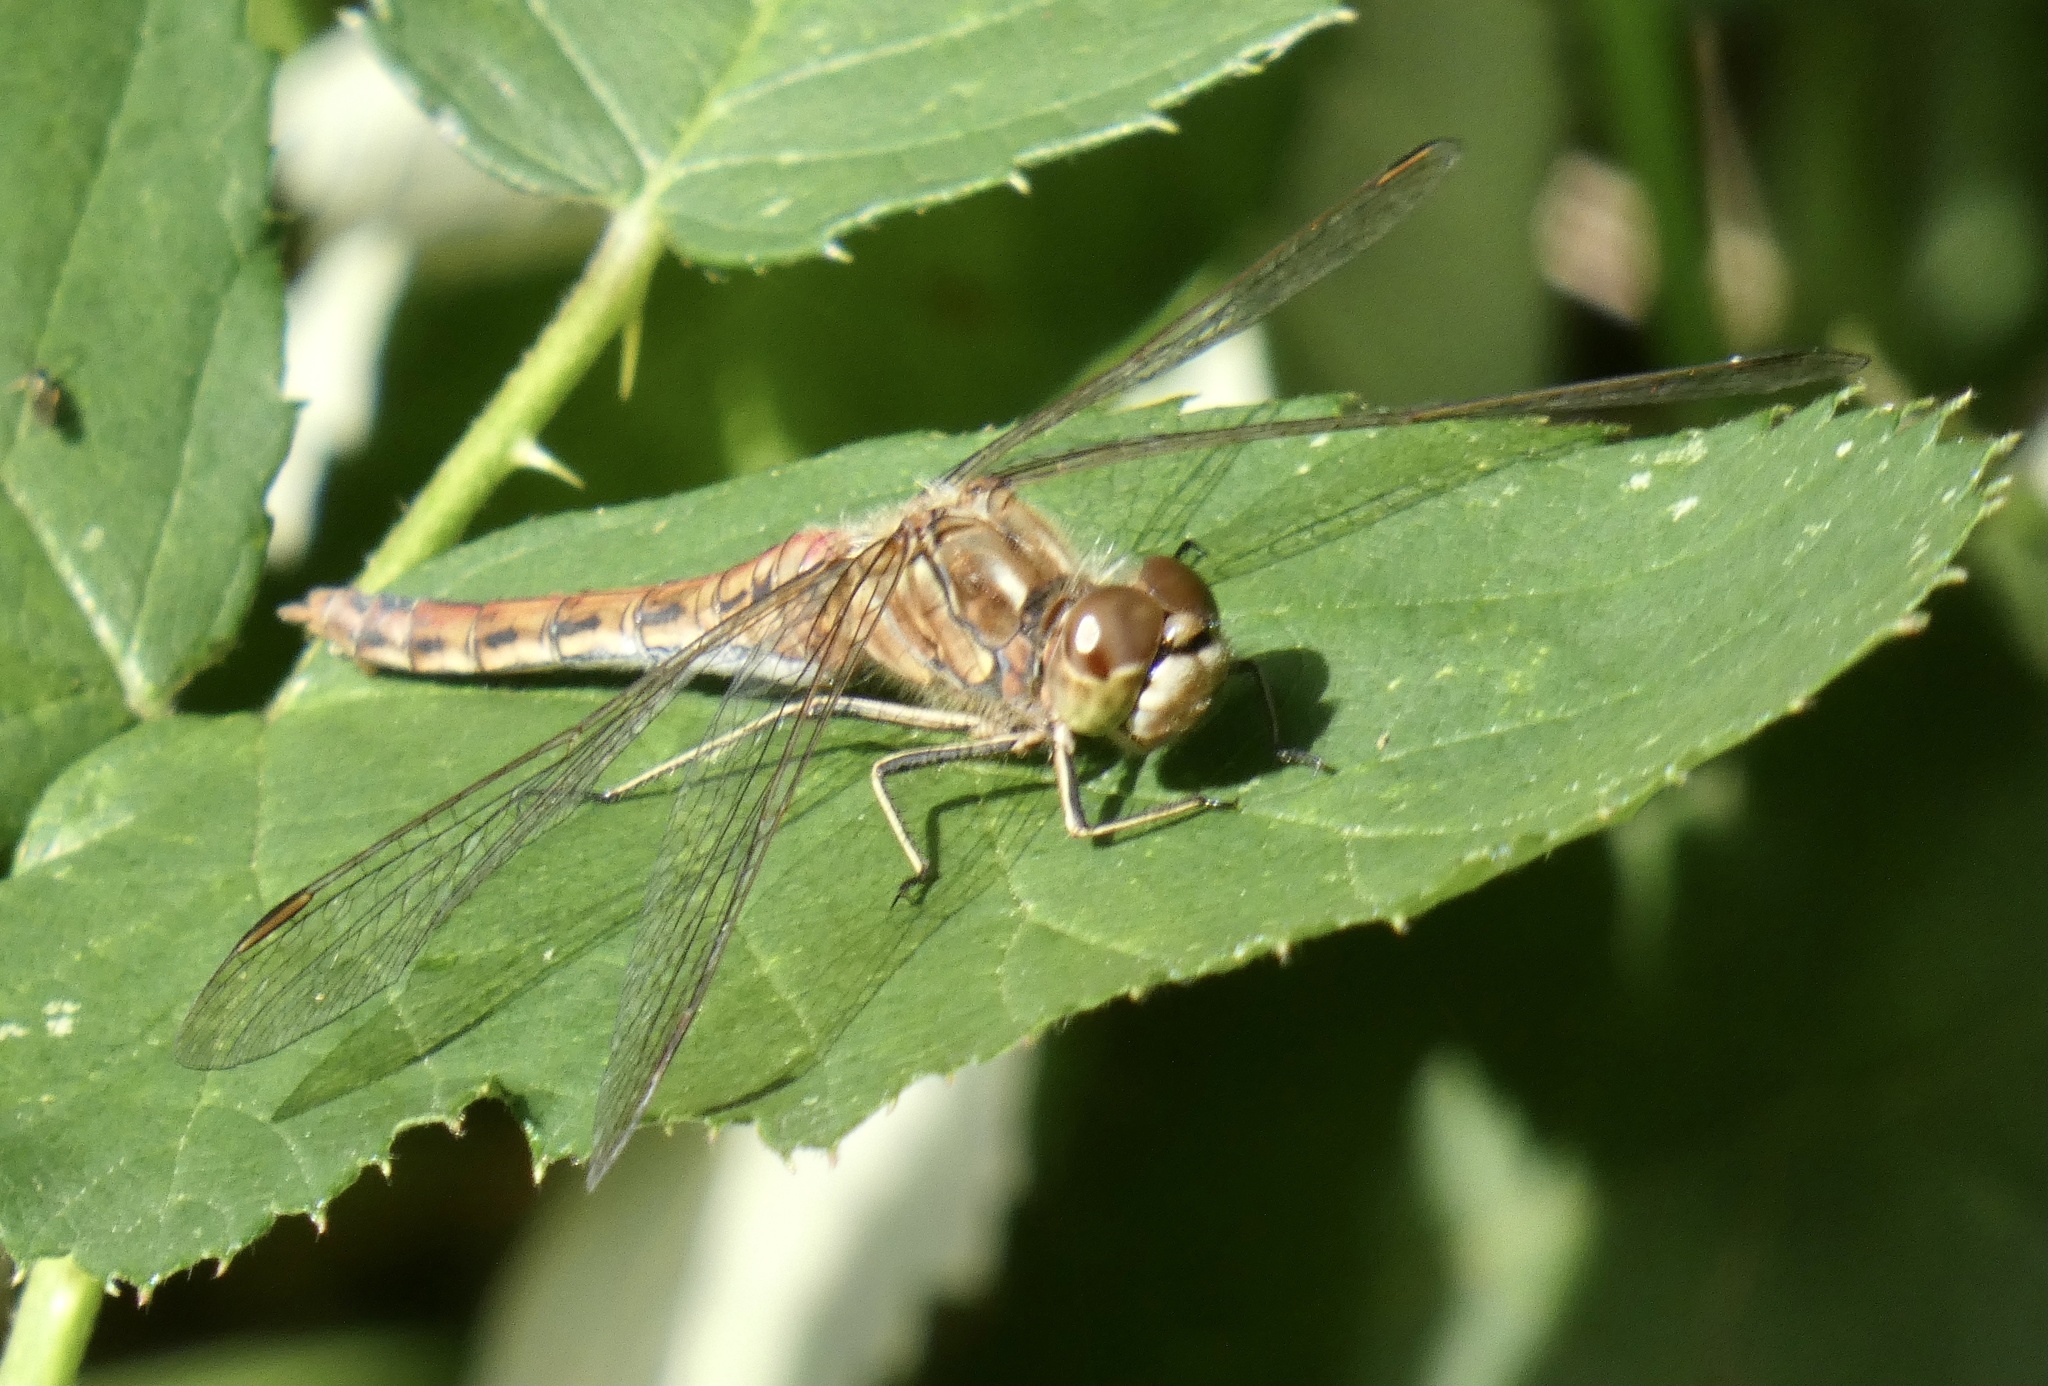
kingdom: Animalia
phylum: Arthropoda
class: Insecta
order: Odonata
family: Libellulidae
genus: Sympetrum
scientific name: Sympetrum vulgatum
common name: Vagrant darter
